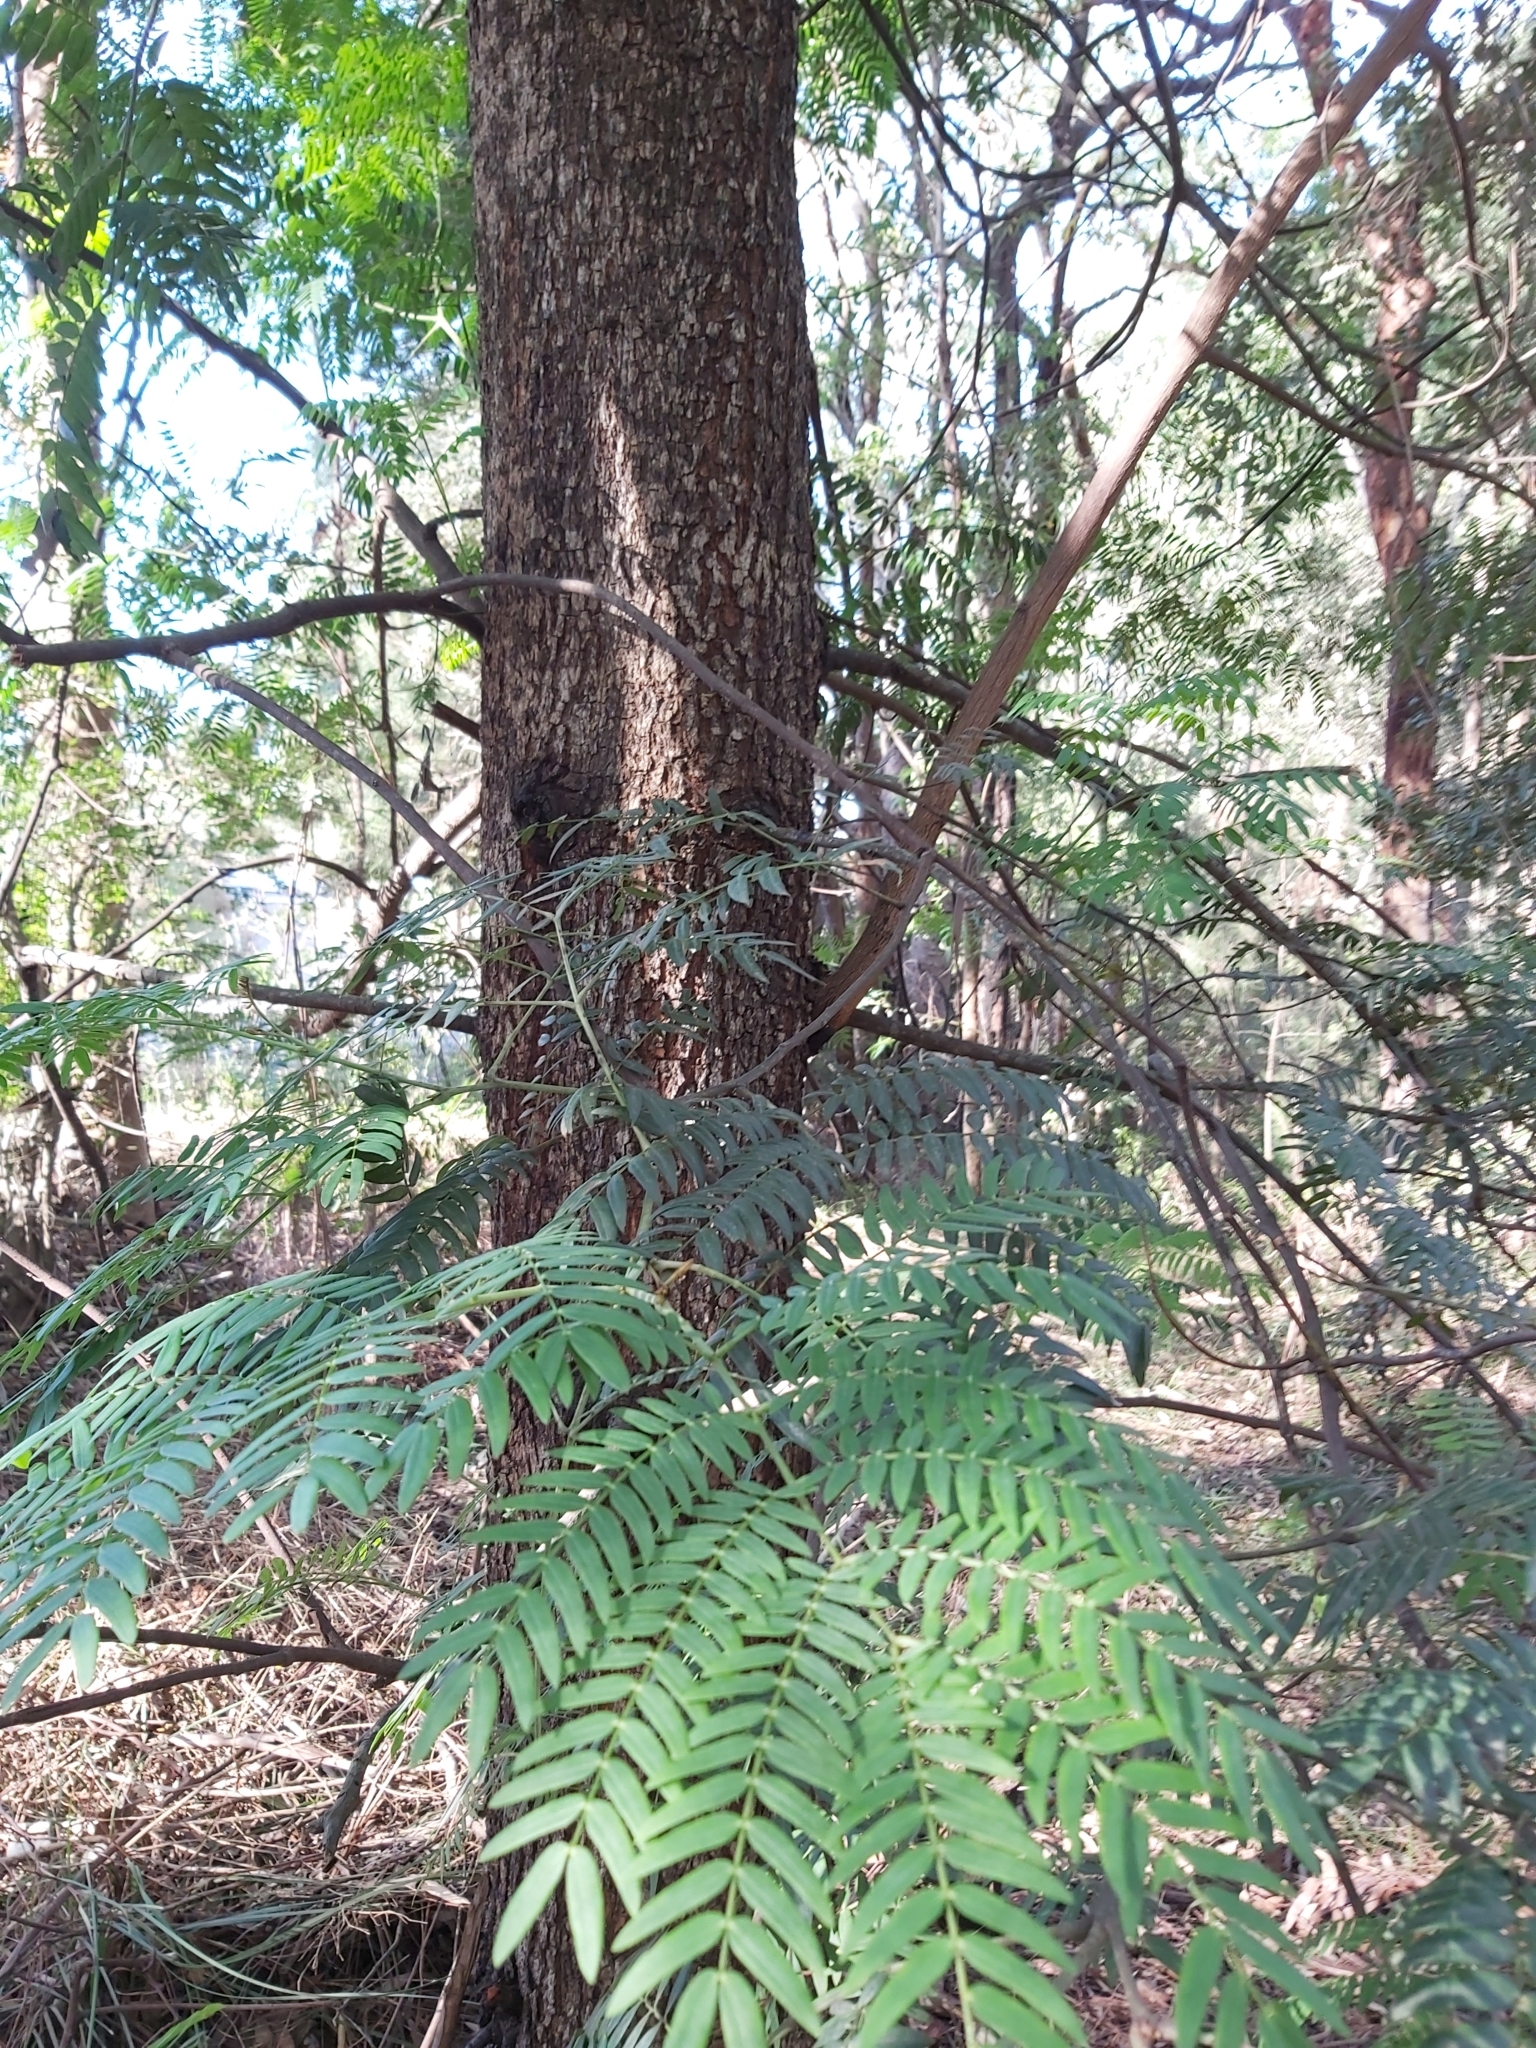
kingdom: Plantae
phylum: Tracheophyta
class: Magnoliopsida
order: Fabales
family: Fabaceae
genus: Acacia
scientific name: Acacia elata
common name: Cedar wattle
